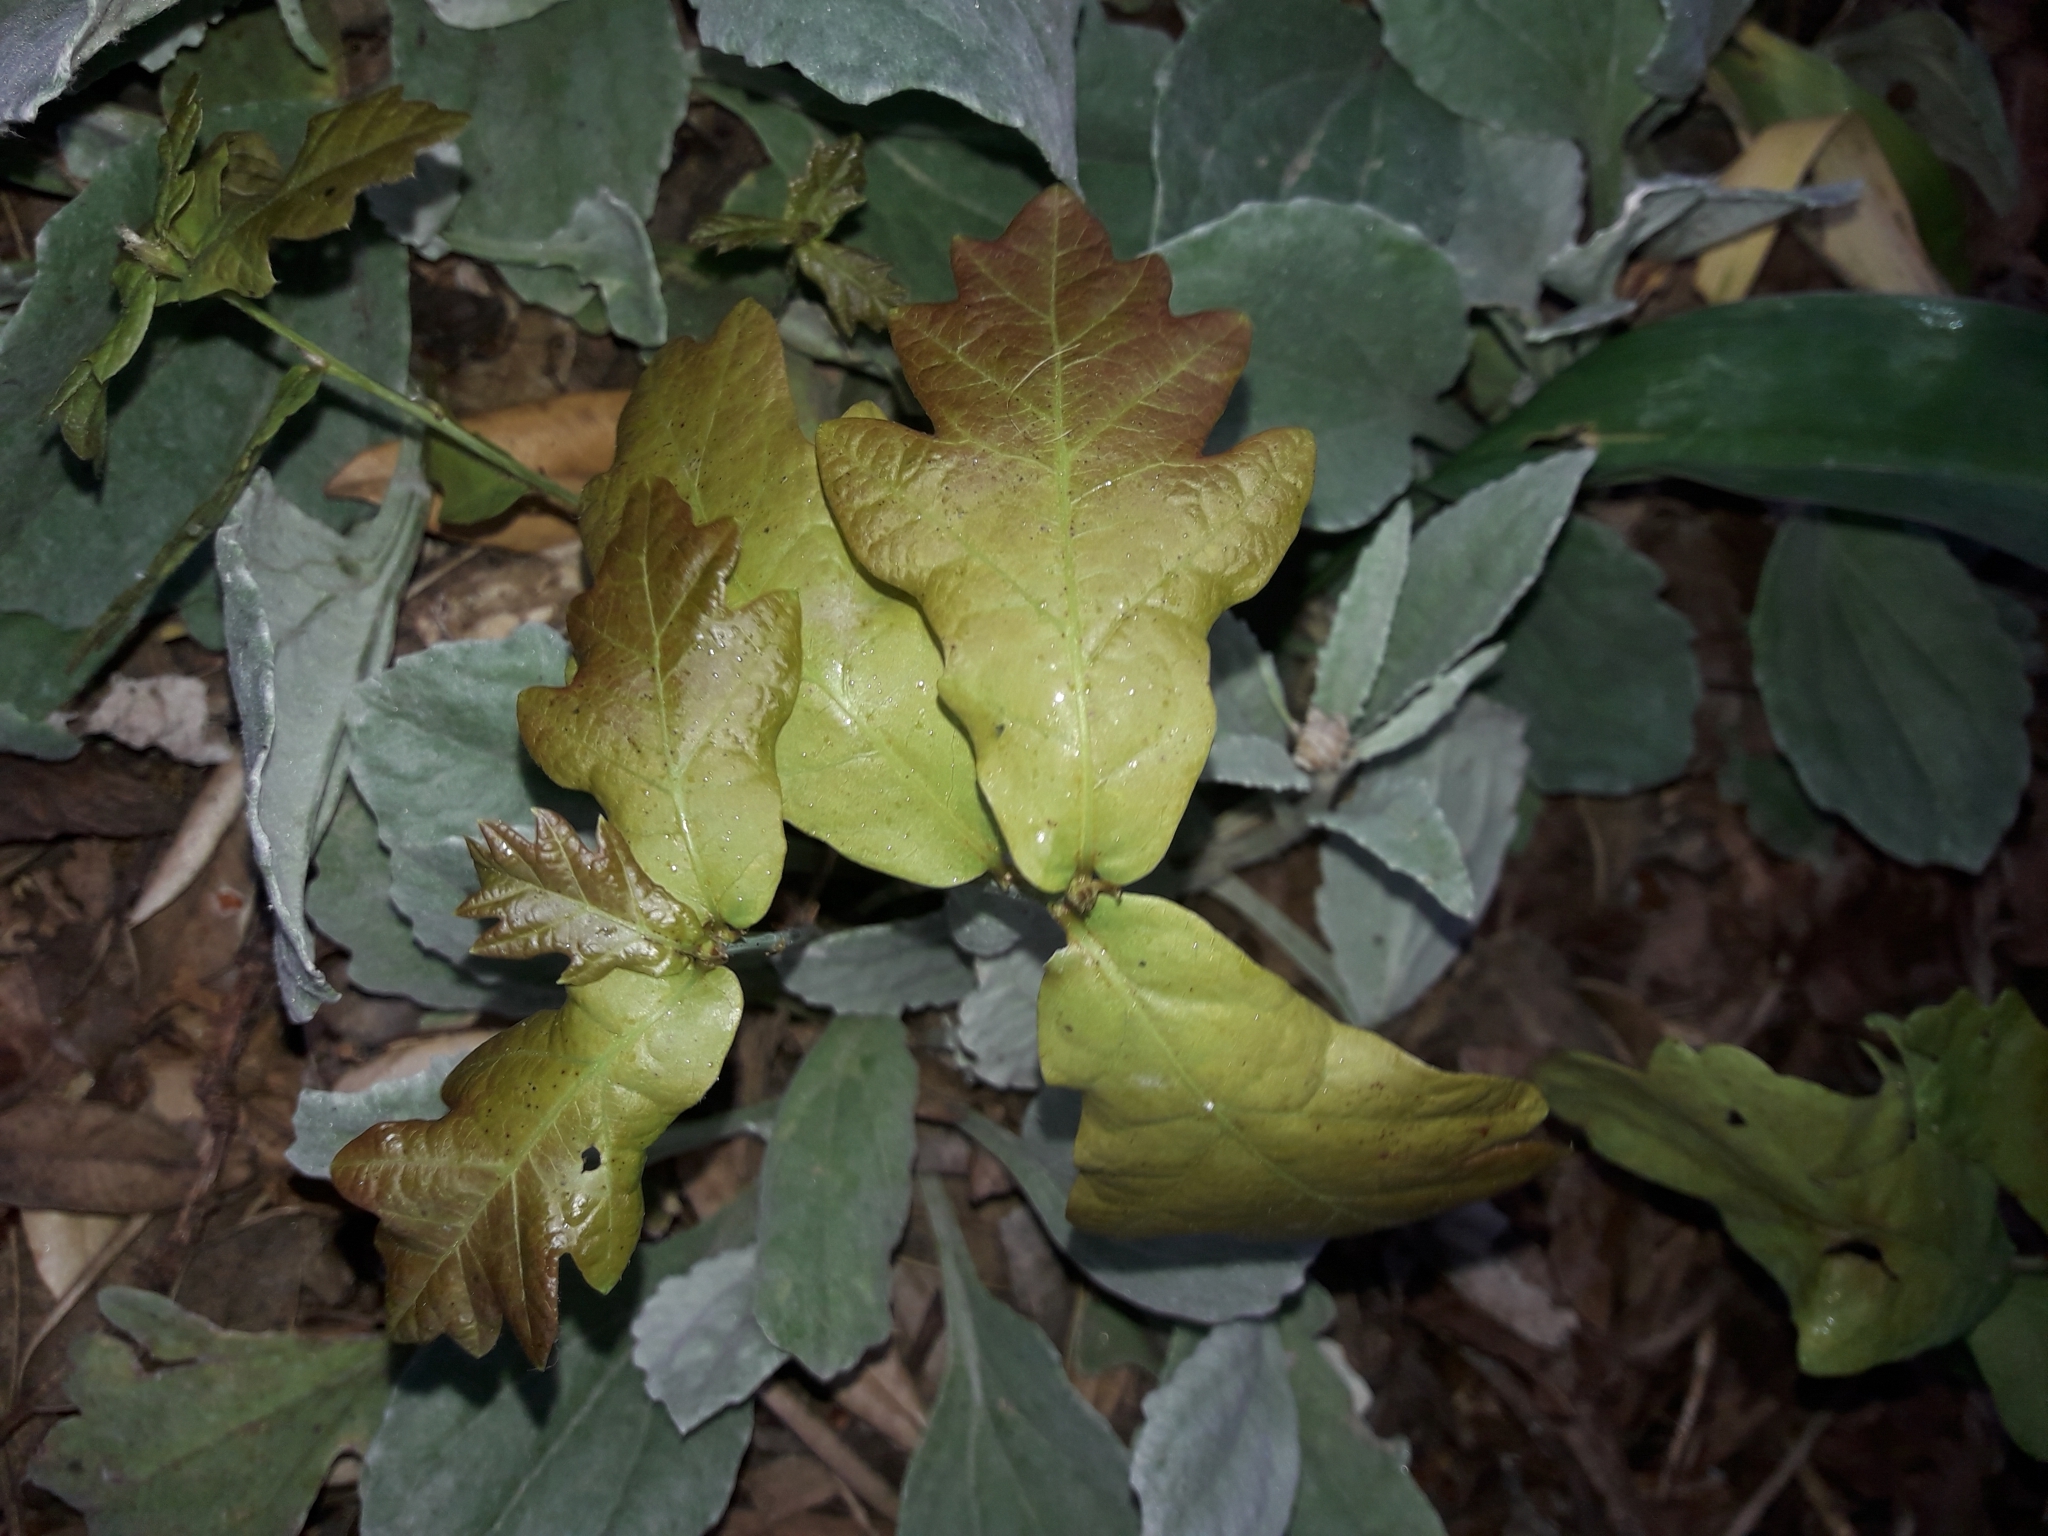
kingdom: Plantae
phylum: Tracheophyta
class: Magnoliopsida
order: Fagales
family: Fagaceae
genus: Quercus
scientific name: Quercus robur
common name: Pedunculate oak
